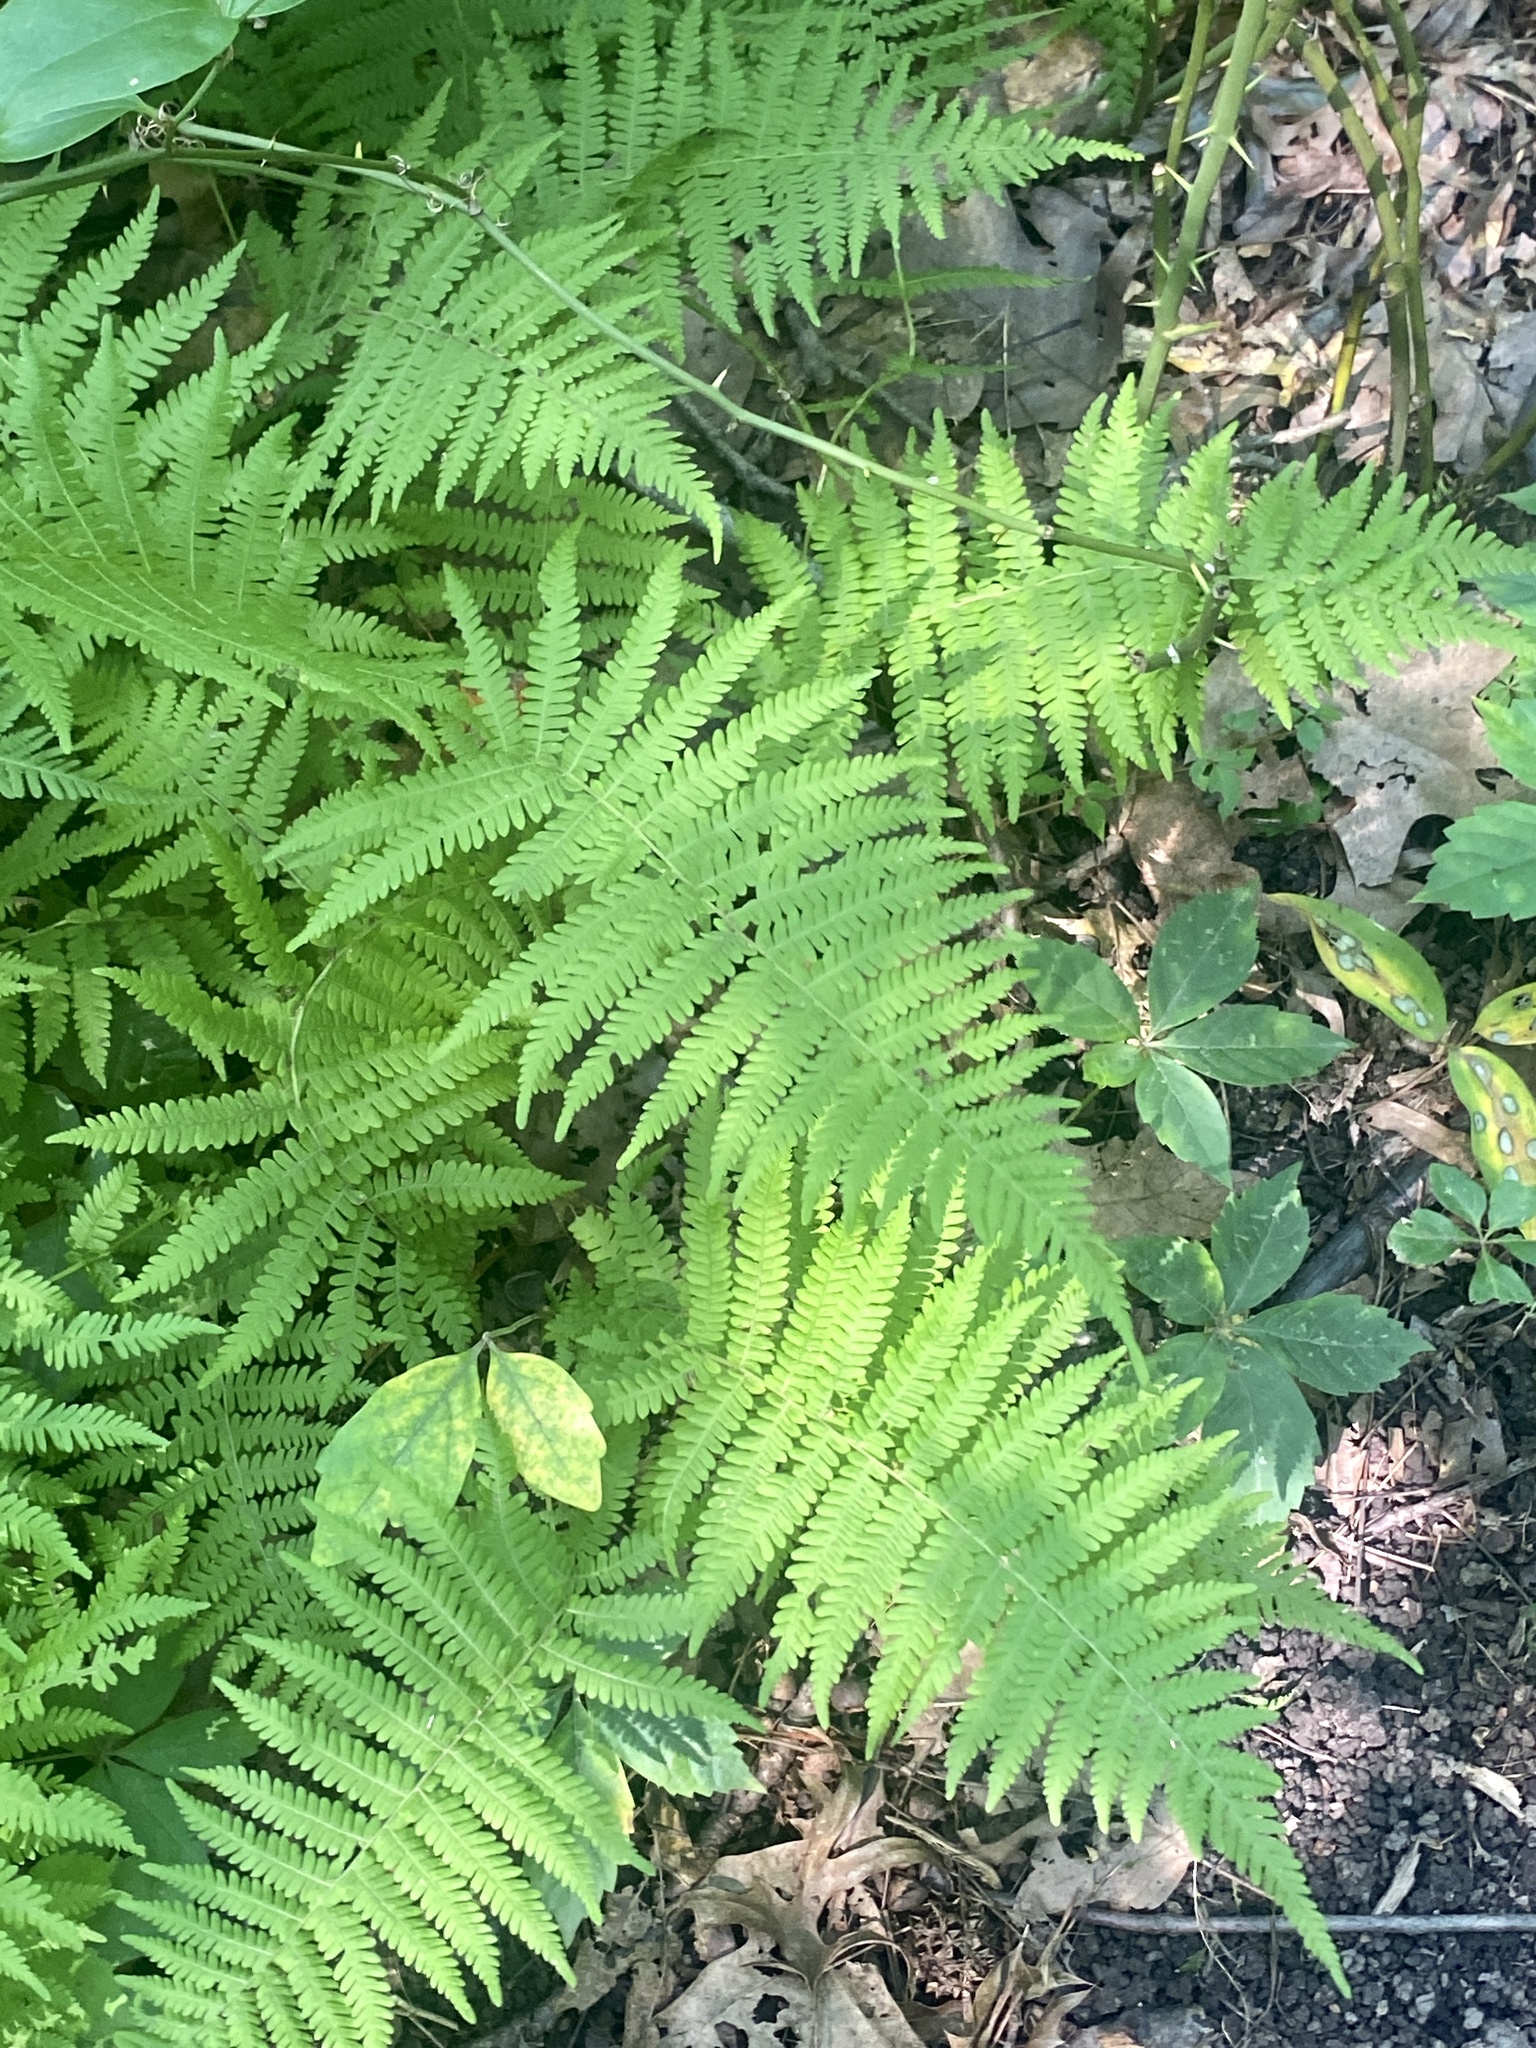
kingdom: Plantae
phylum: Tracheophyta
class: Polypodiopsida
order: Polypodiales
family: Thelypteridaceae
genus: Amauropelta
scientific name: Amauropelta noveboracensis
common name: New york fern
